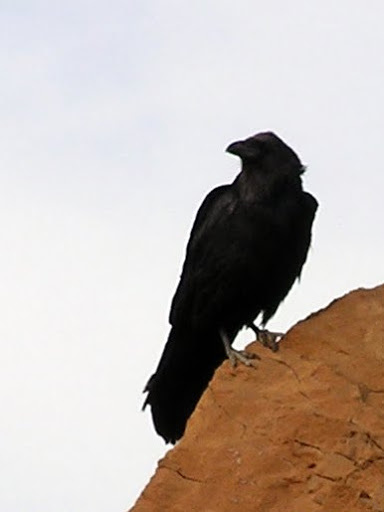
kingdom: Animalia
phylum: Chordata
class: Aves
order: Passeriformes
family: Corvidae
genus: Corvus
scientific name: Corvus corax
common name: Common raven
